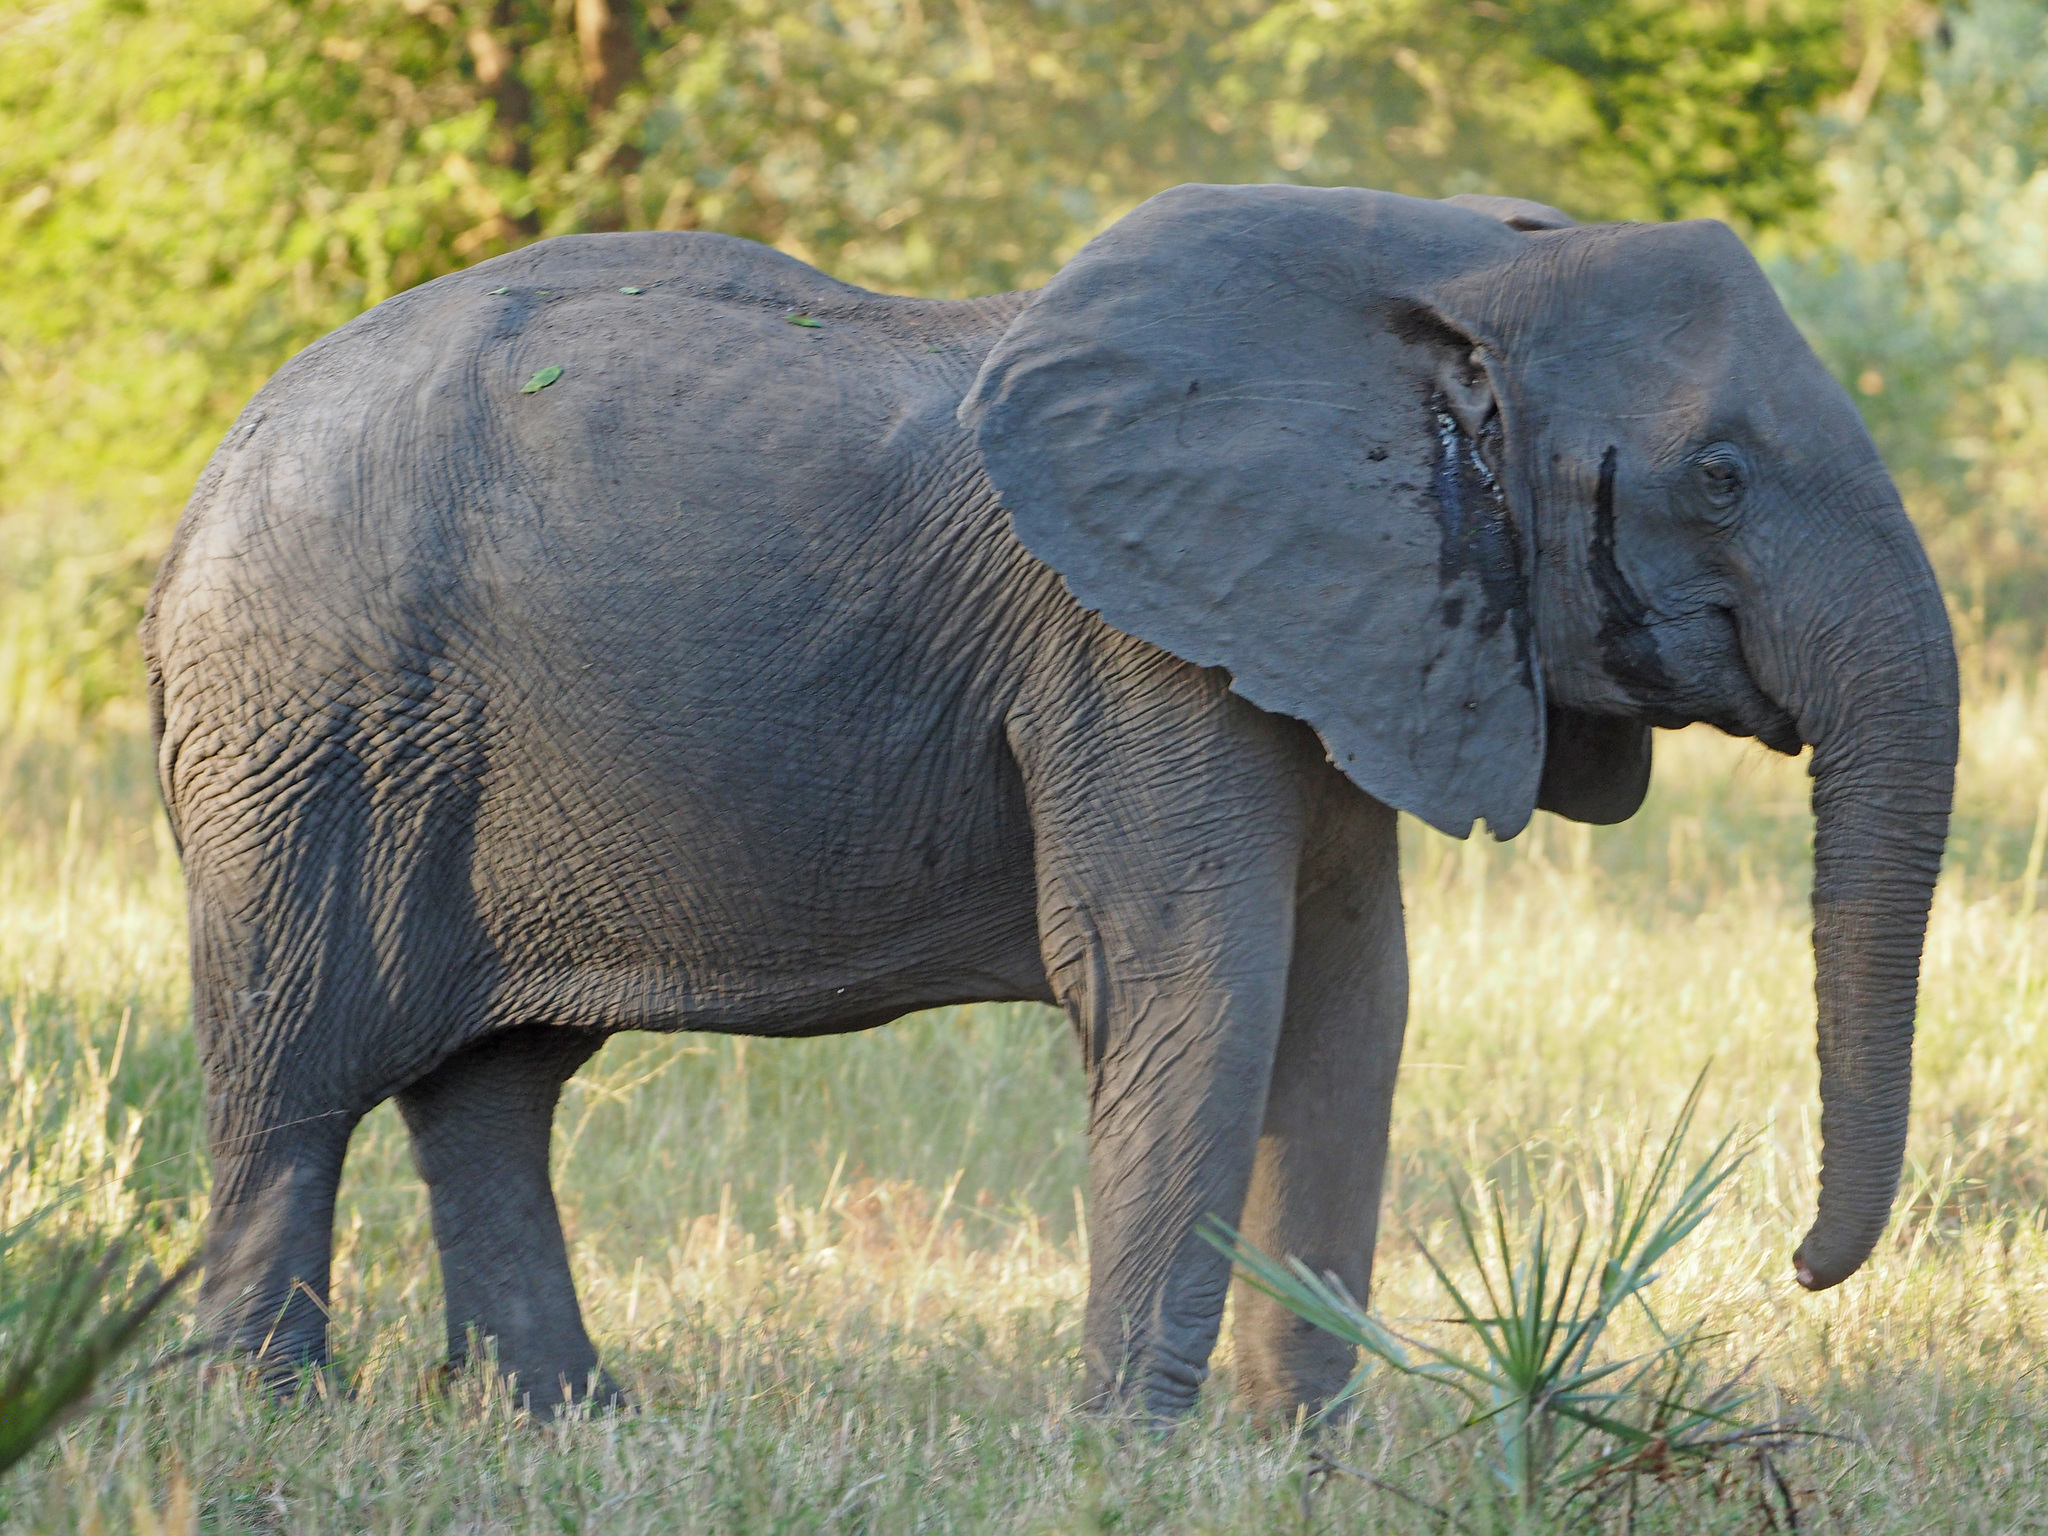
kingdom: Animalia
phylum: Chordata
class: Mammalia
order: Proboscidea
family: Elephantidae
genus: Loxodonta
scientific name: Loxodonta africana
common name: African elephant
